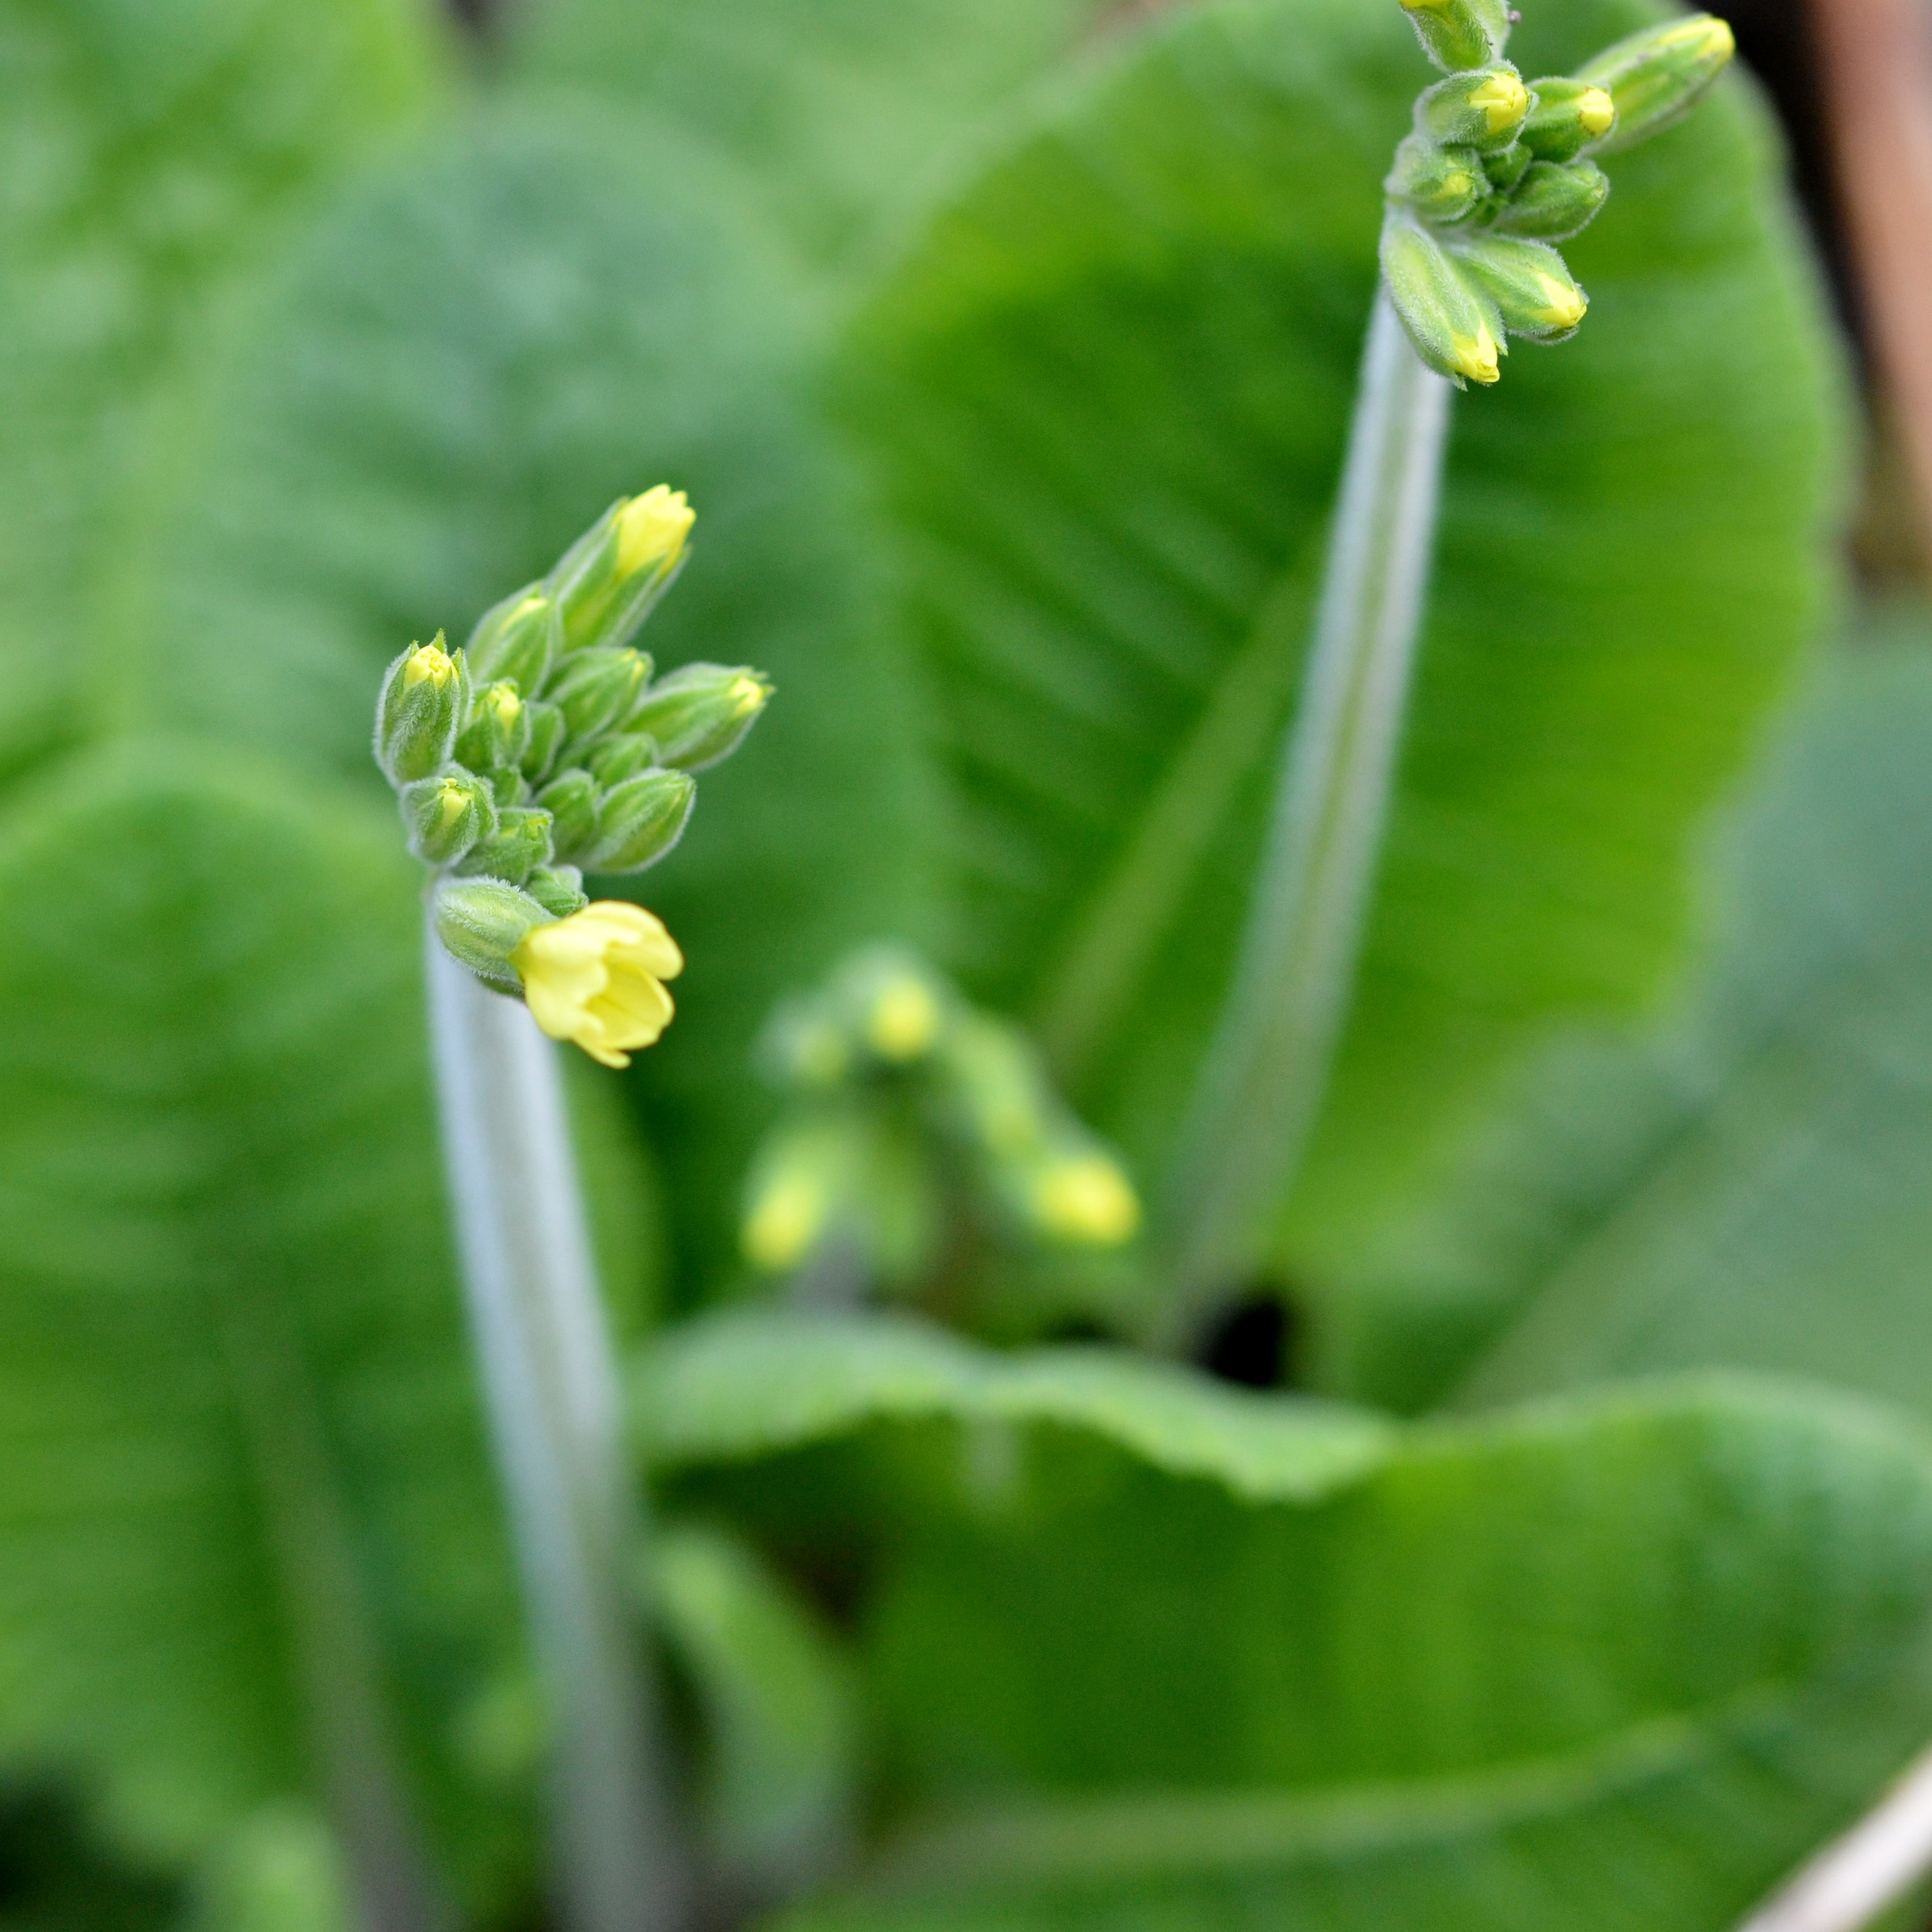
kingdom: Plantae
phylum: Tracheophyta
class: Magnoliopsida
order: Ericales
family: Primulaceae
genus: Primula
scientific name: Primula elatior
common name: Oxlip
